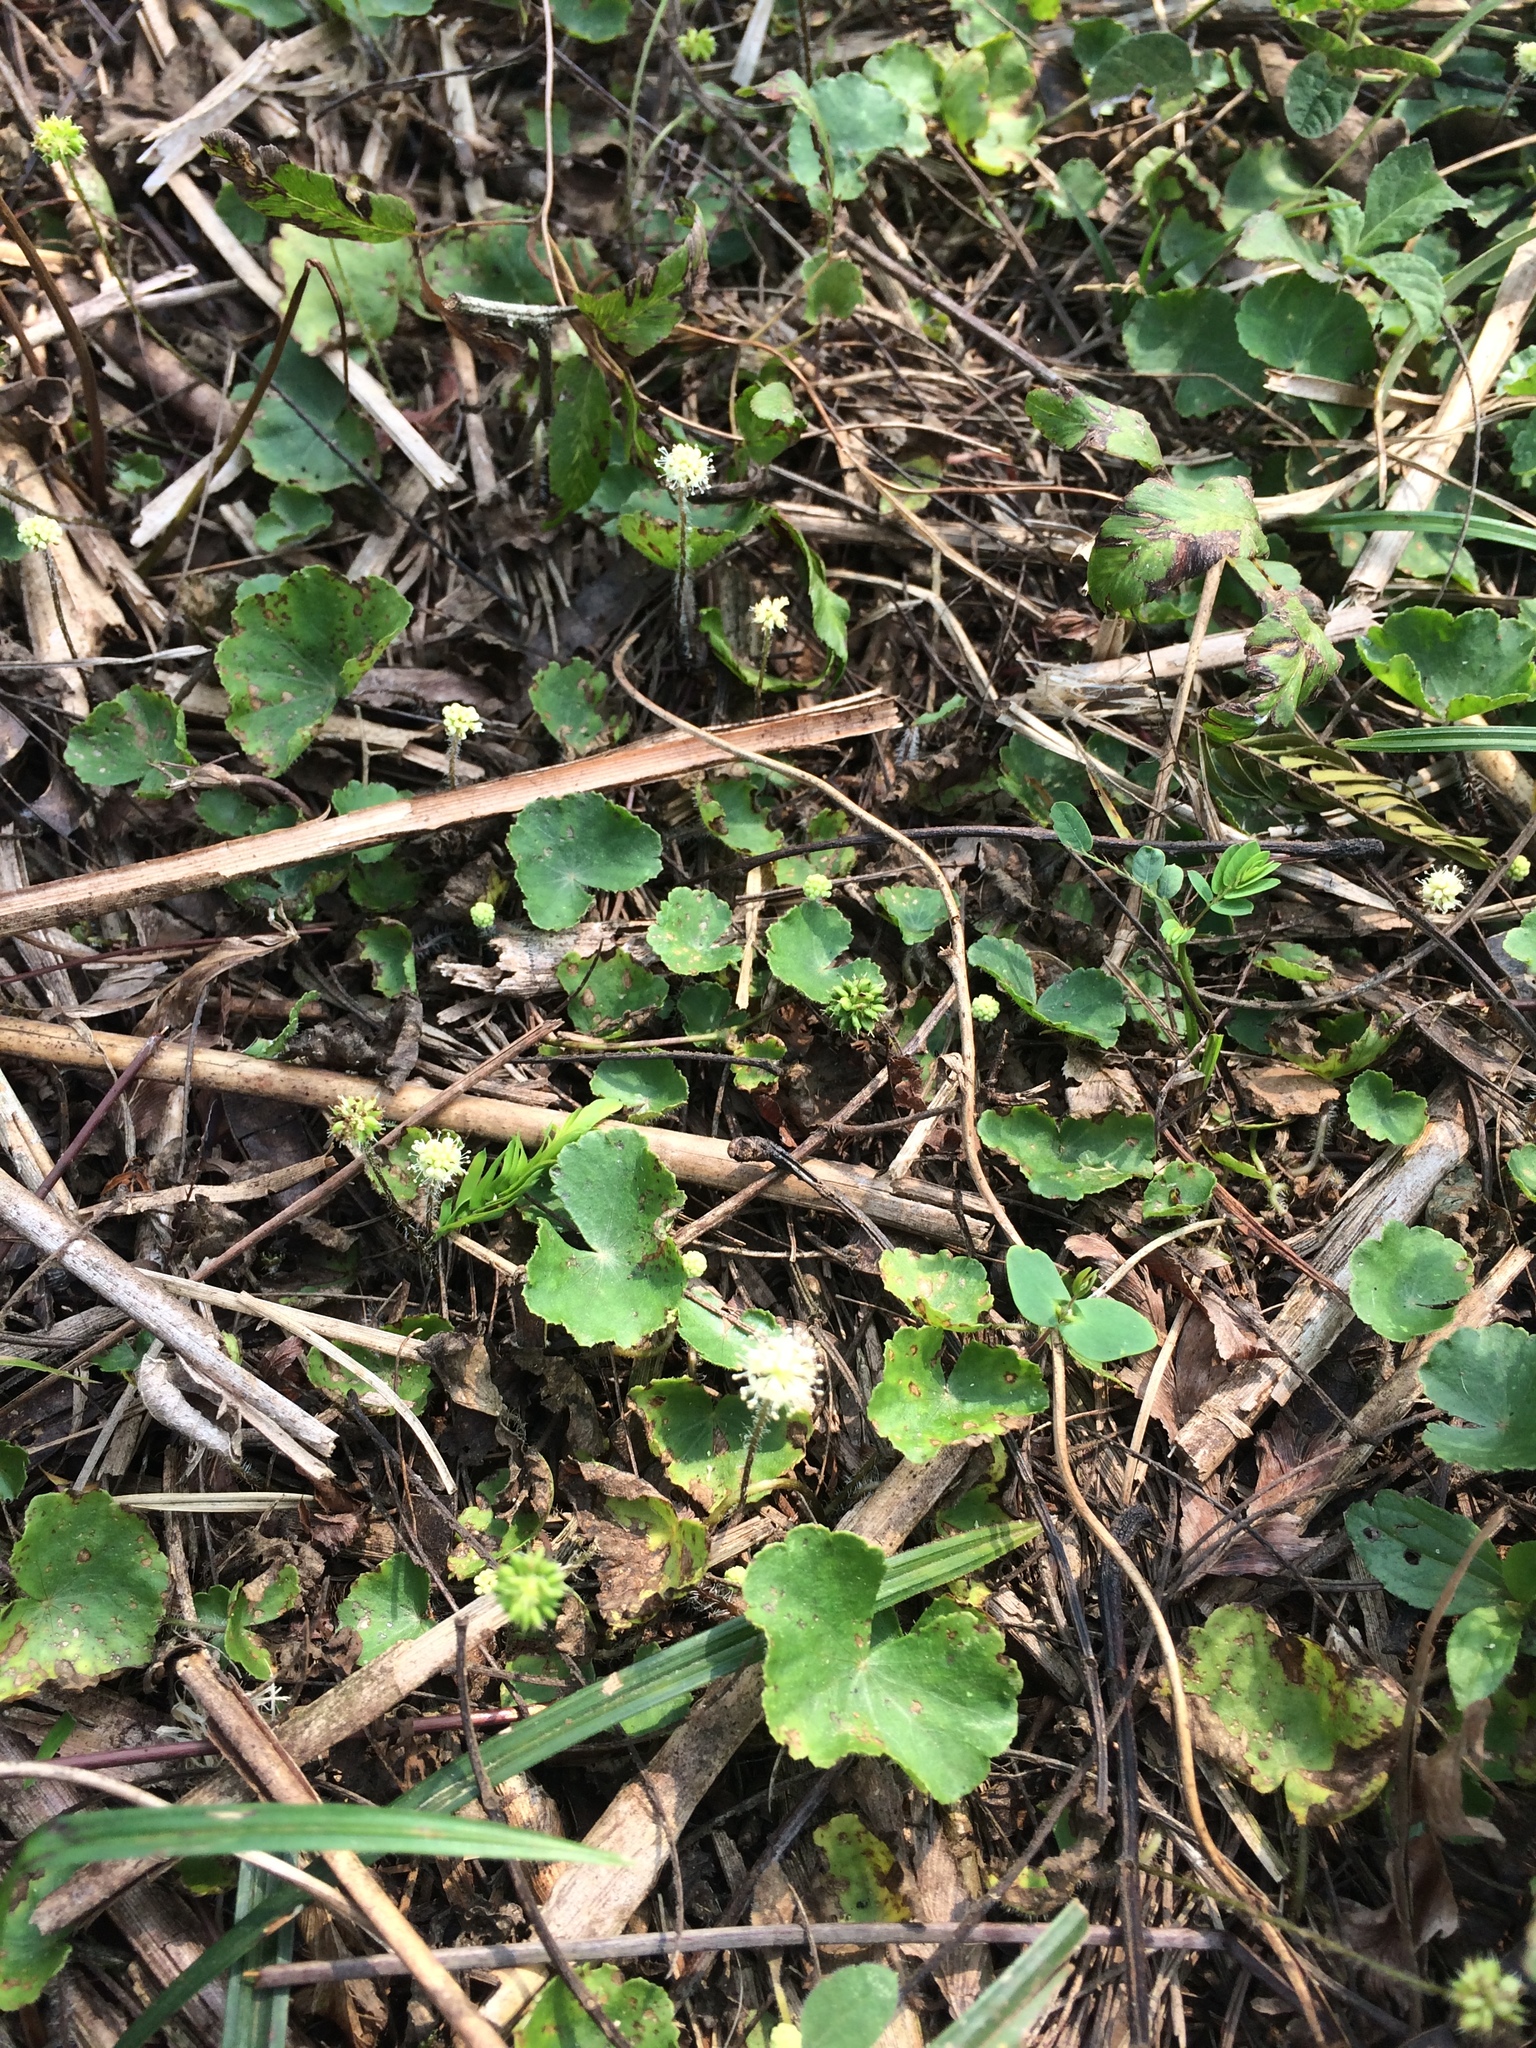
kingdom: Plantae
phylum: Tracheophyta
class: Magnoliopsida
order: Apiales
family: Araliaceae
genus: Hydrocotyle
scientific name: Hydrocotyle leucocephala
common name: Brazilian pennywort
